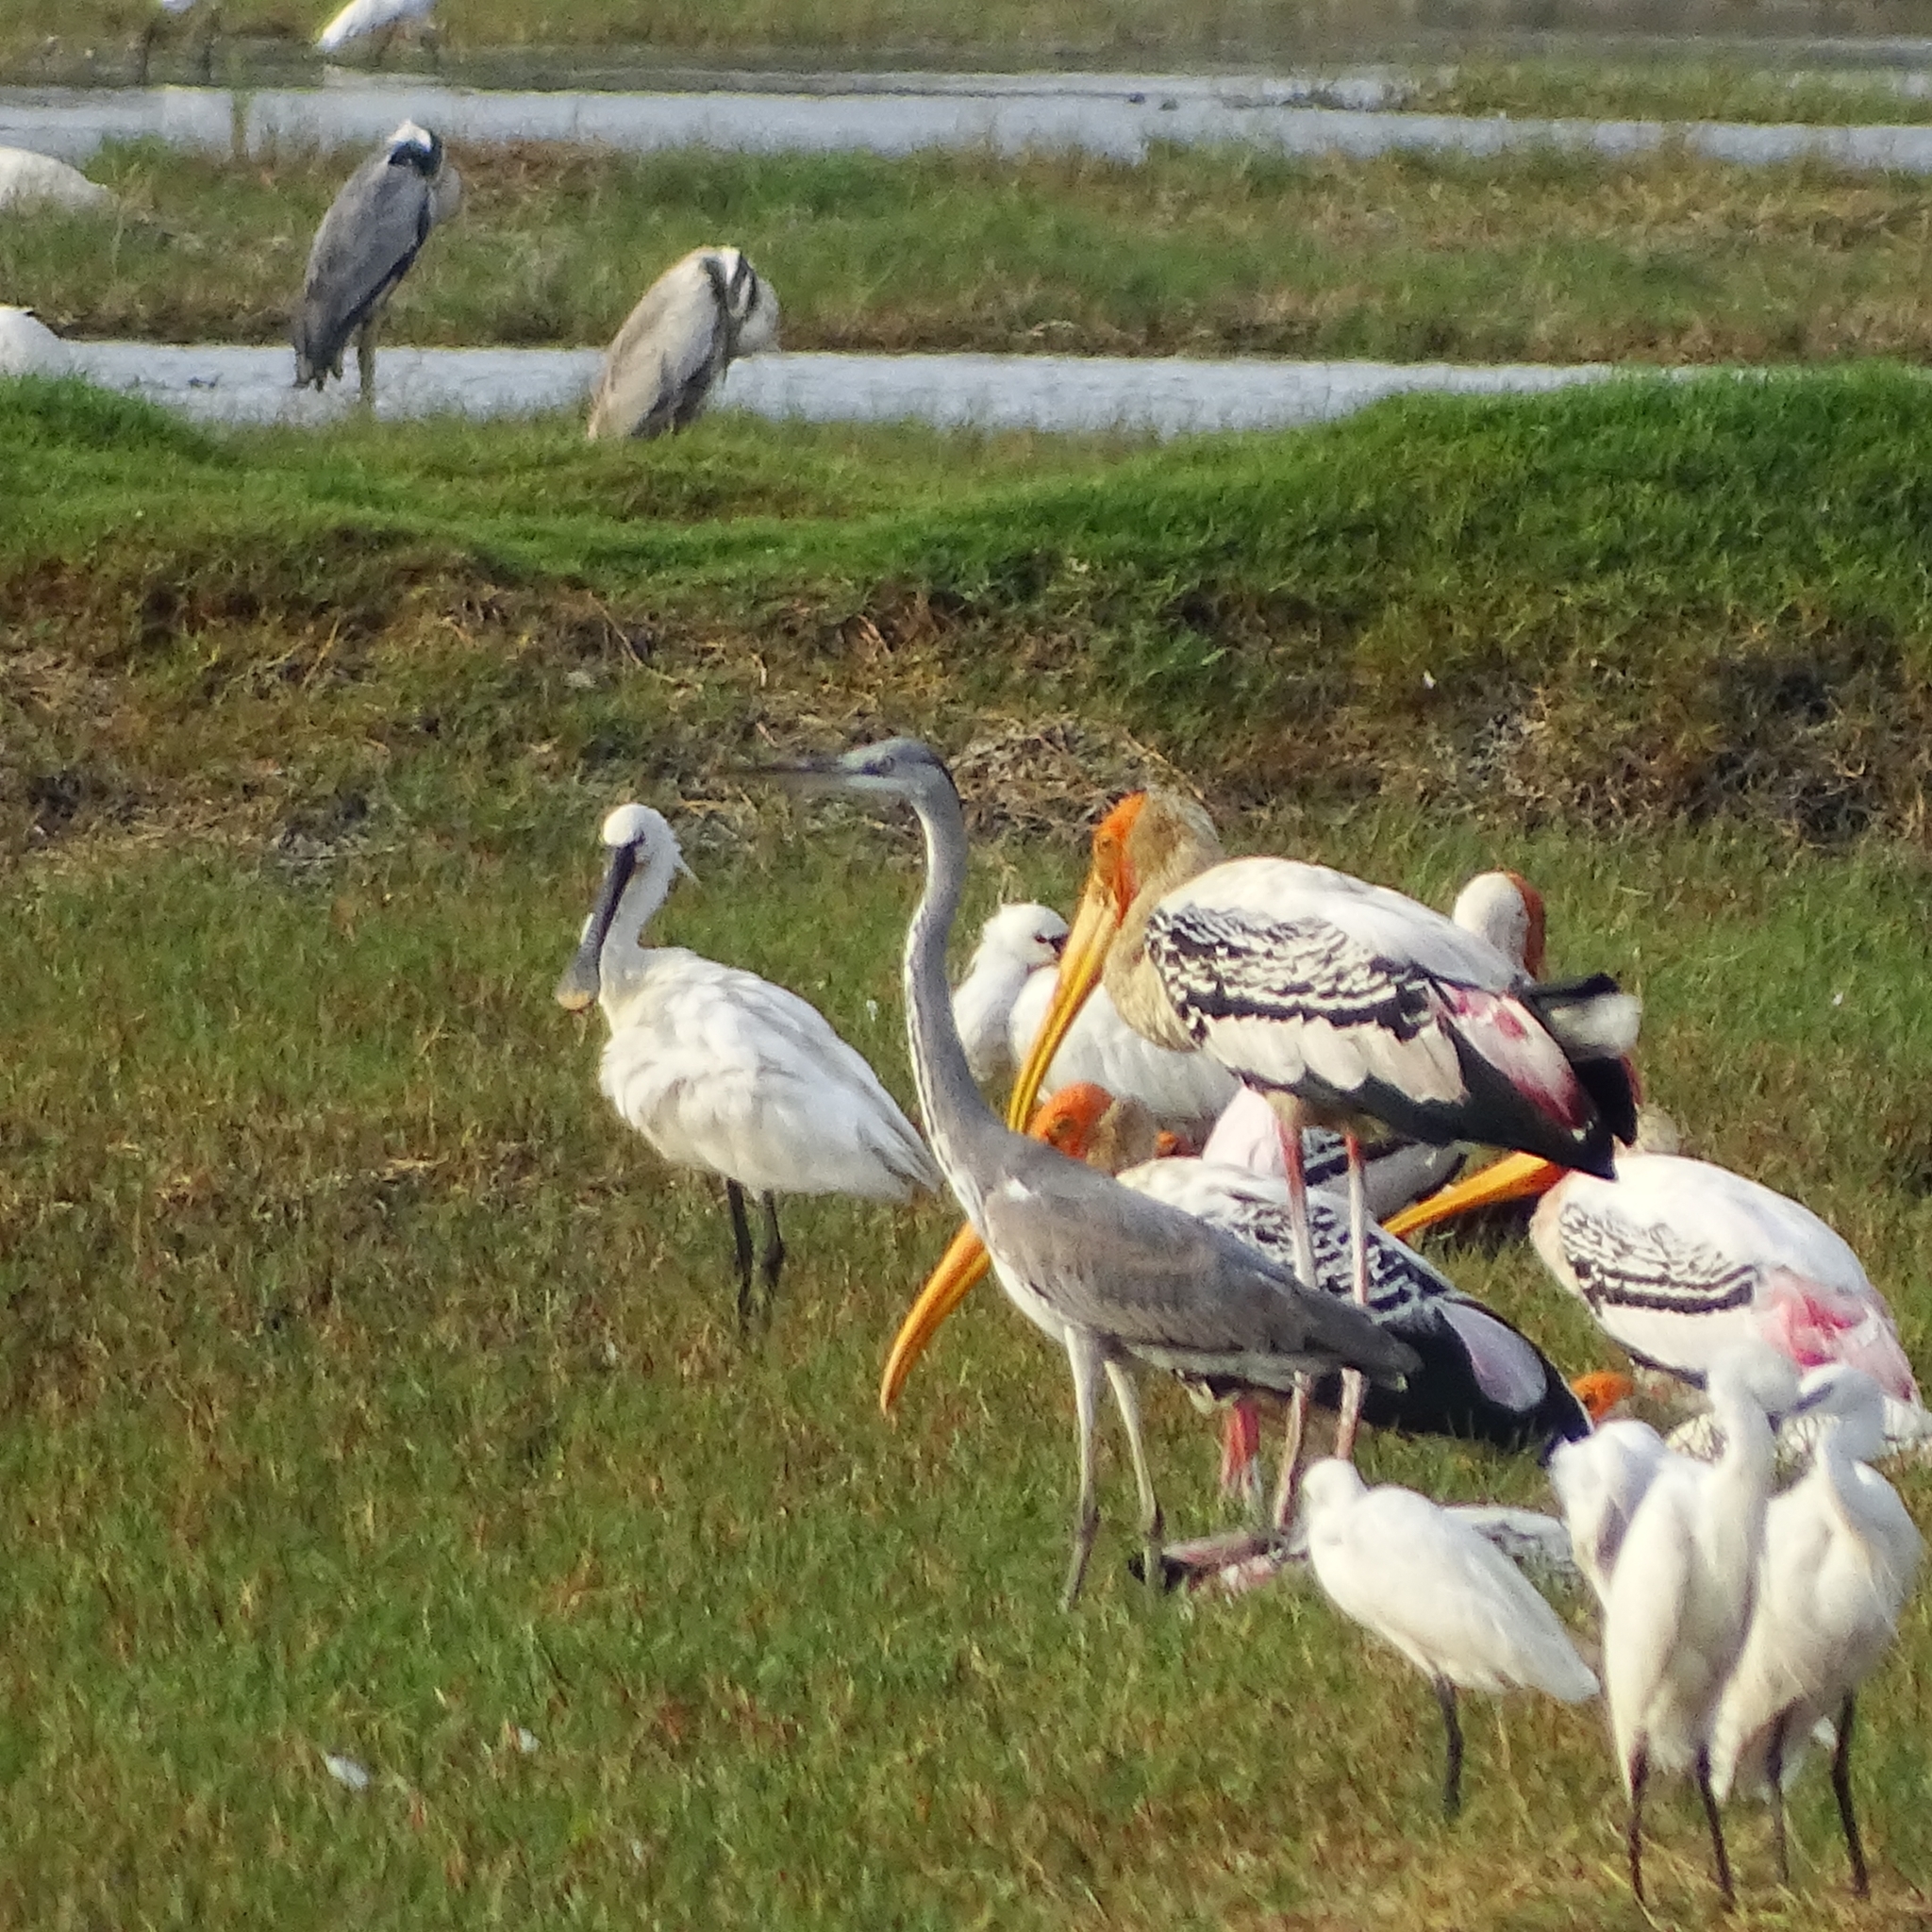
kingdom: Animalia
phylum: Chordata
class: Aves
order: Ciconiiformes
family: Ciconiidae
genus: Mycteria
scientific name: Mycteria leucocephala
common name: Painted stork
